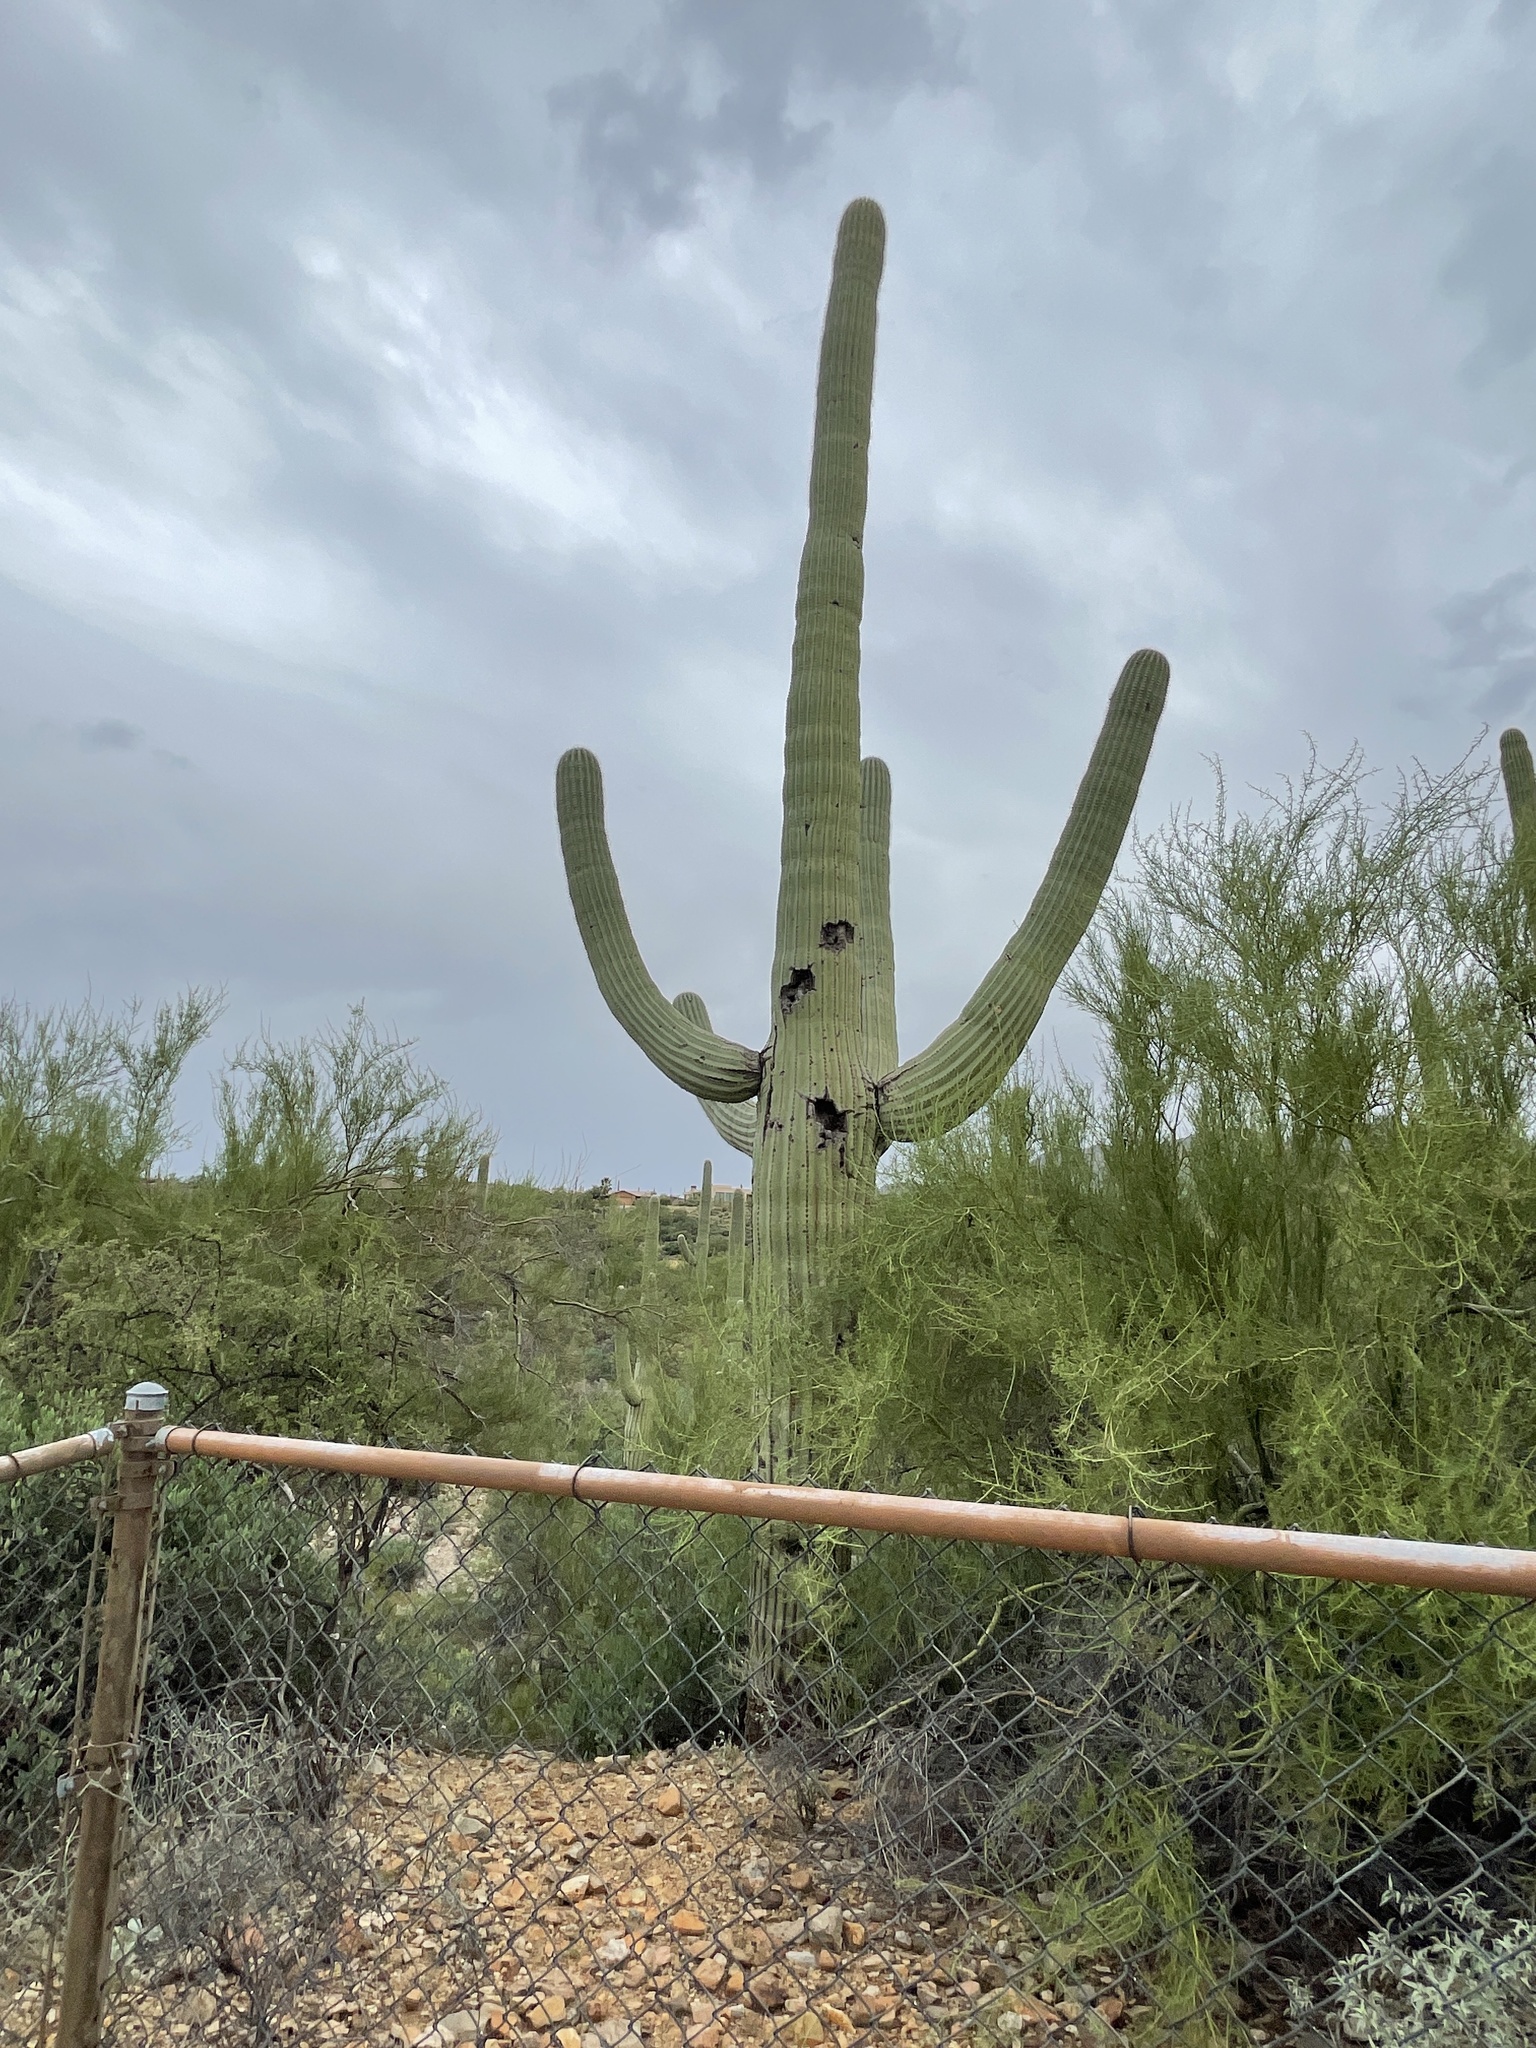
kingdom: Plantae
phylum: Tracheophyta
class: Magnoliopsida
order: Caryophyllales
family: Cactaceae
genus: Carnegiea
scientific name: Carnegiea gigantea
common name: Saguaro
